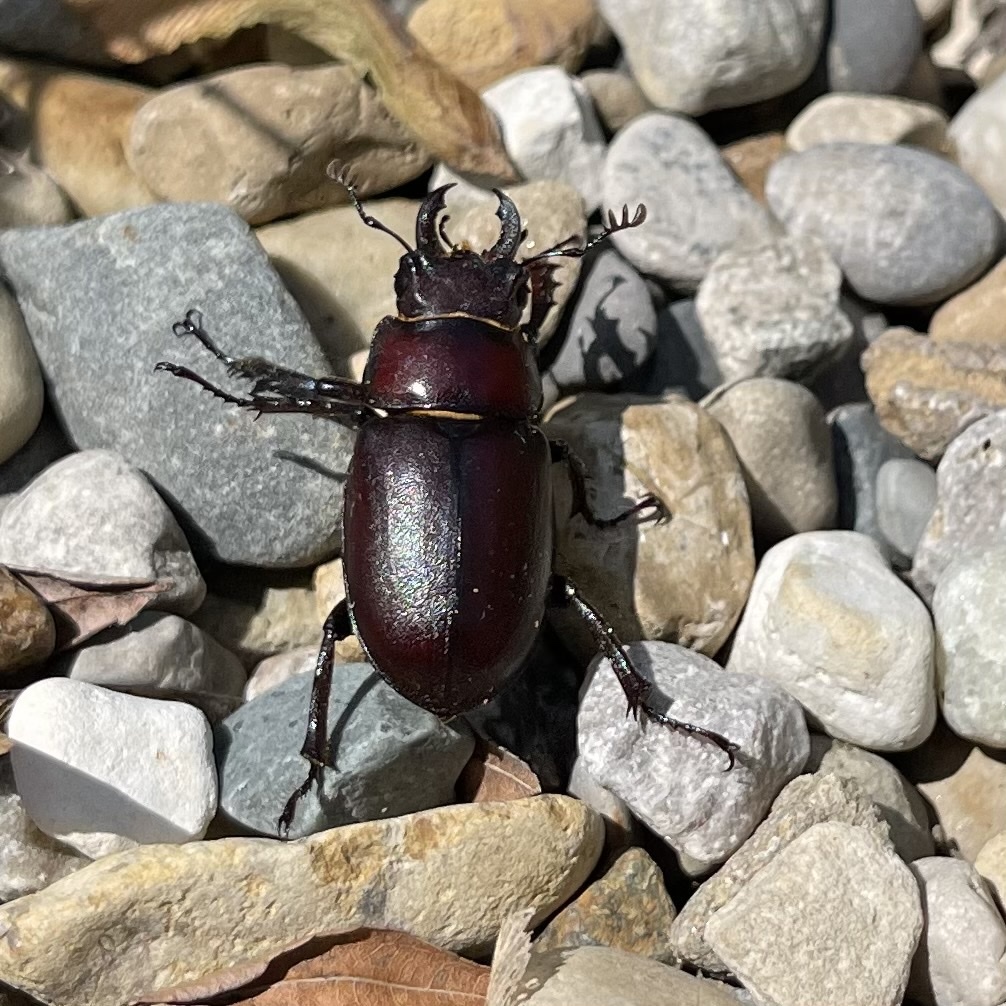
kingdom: Animalia
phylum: Arthropoda
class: Insecta
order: Coleoptera
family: Lucanidae
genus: Lucanus
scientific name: Lucanus placidus
